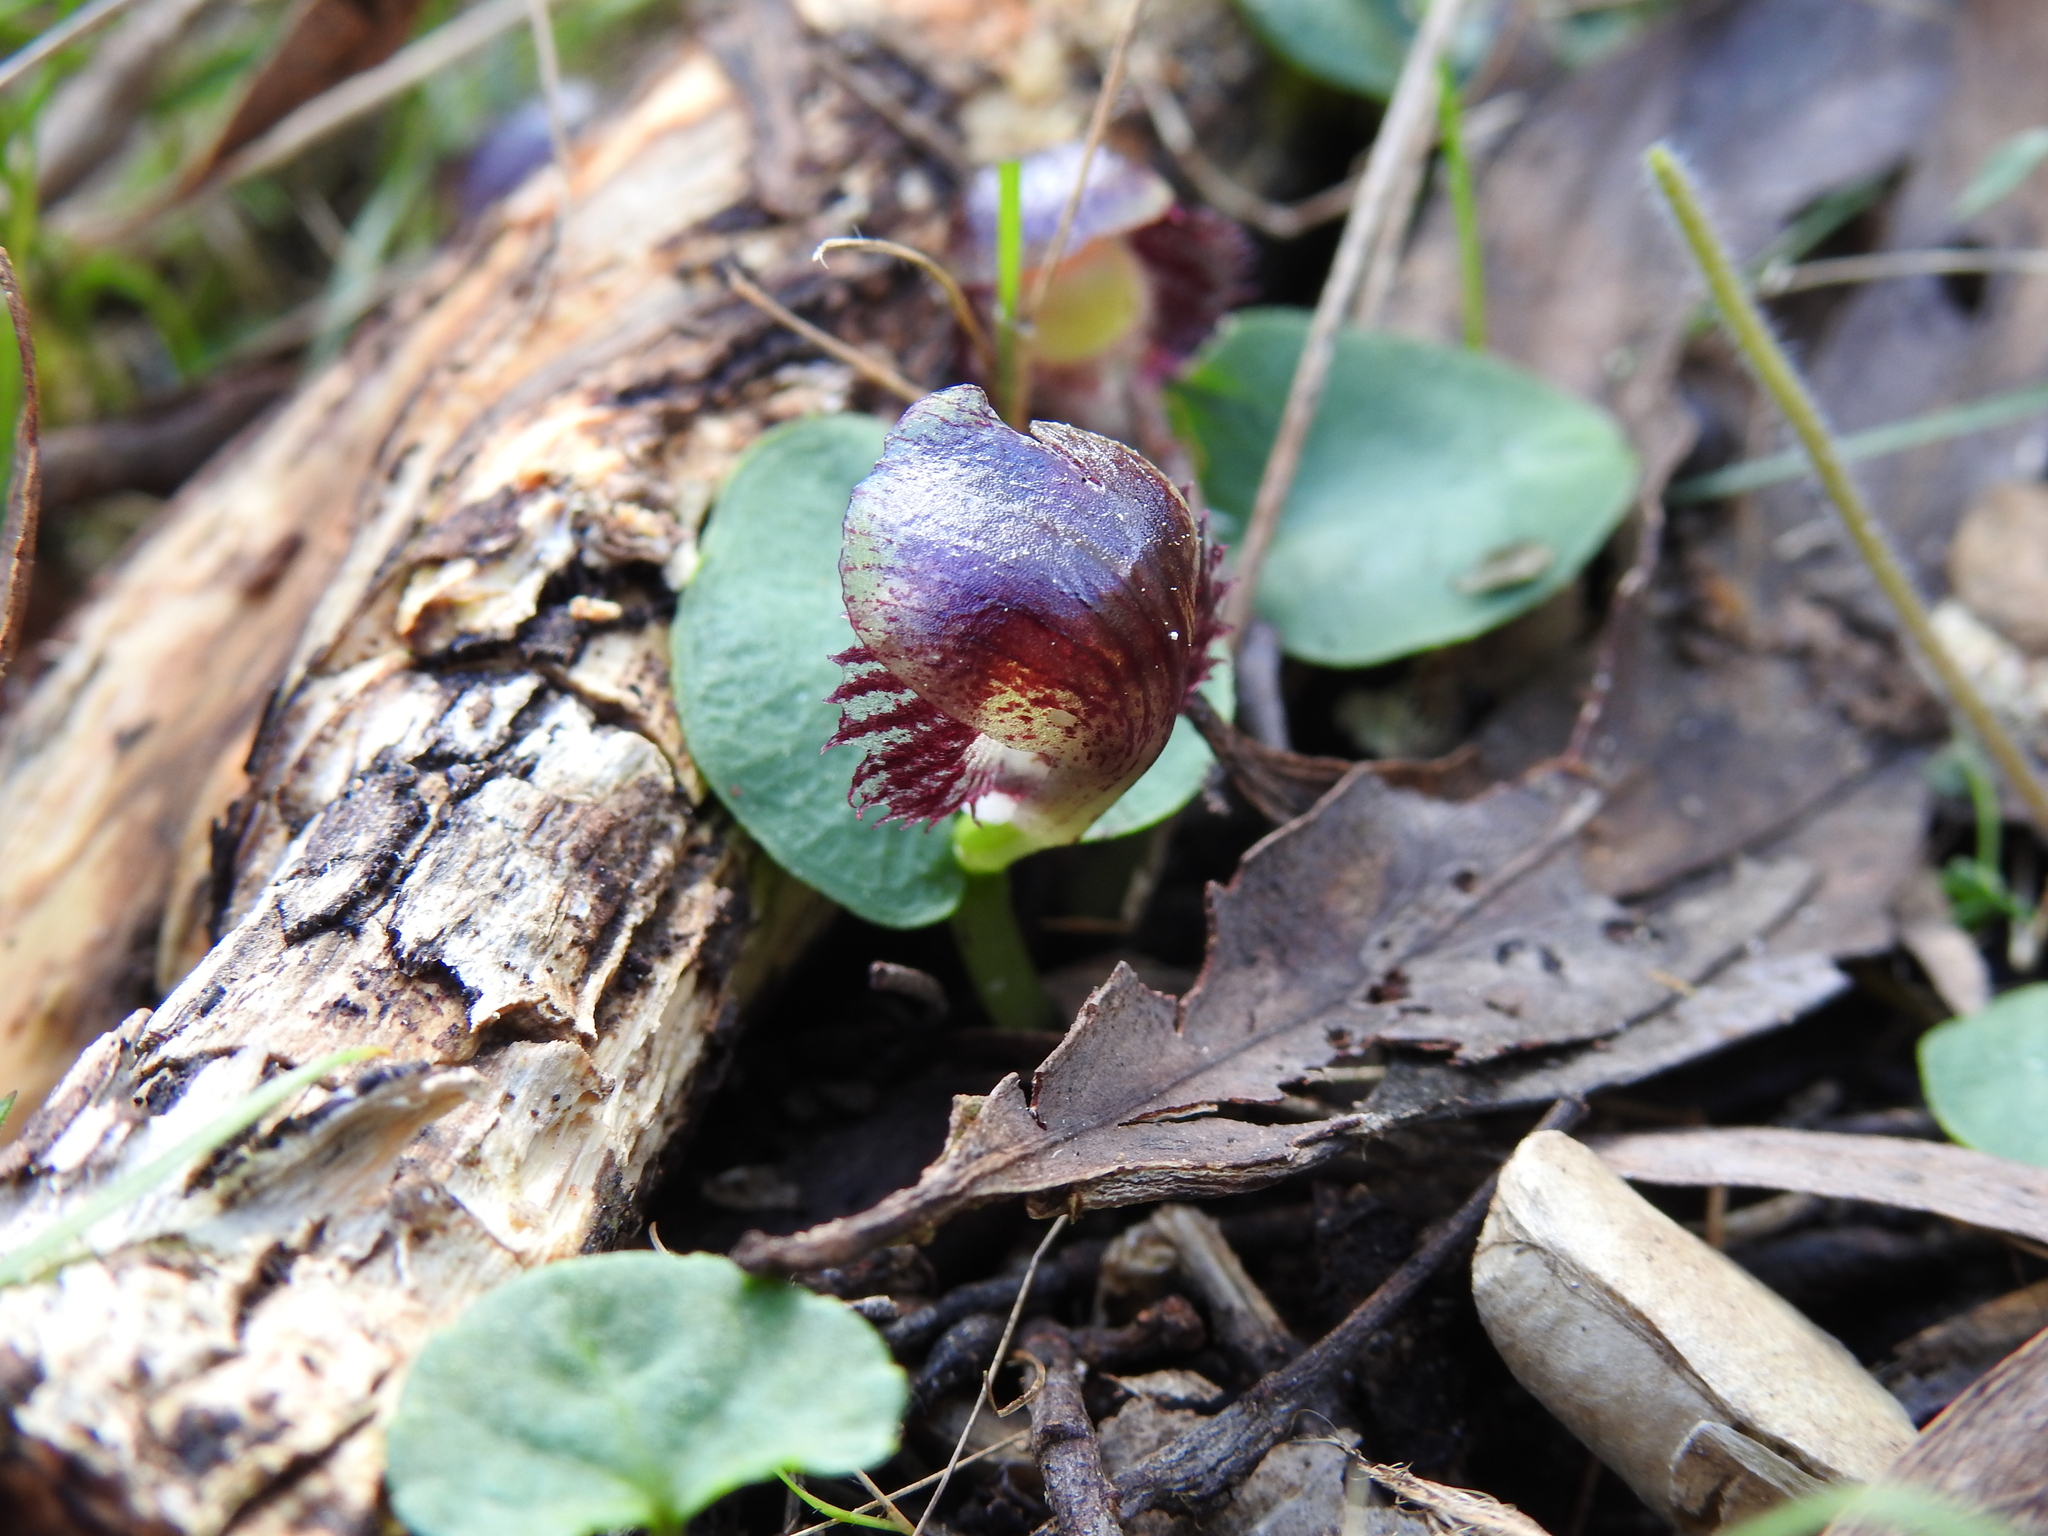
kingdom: Plantae
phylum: Tracheophyta
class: Liliopsida
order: Asparagales
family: Orchidaceae
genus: Corybas
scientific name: Corybas diemenicus
